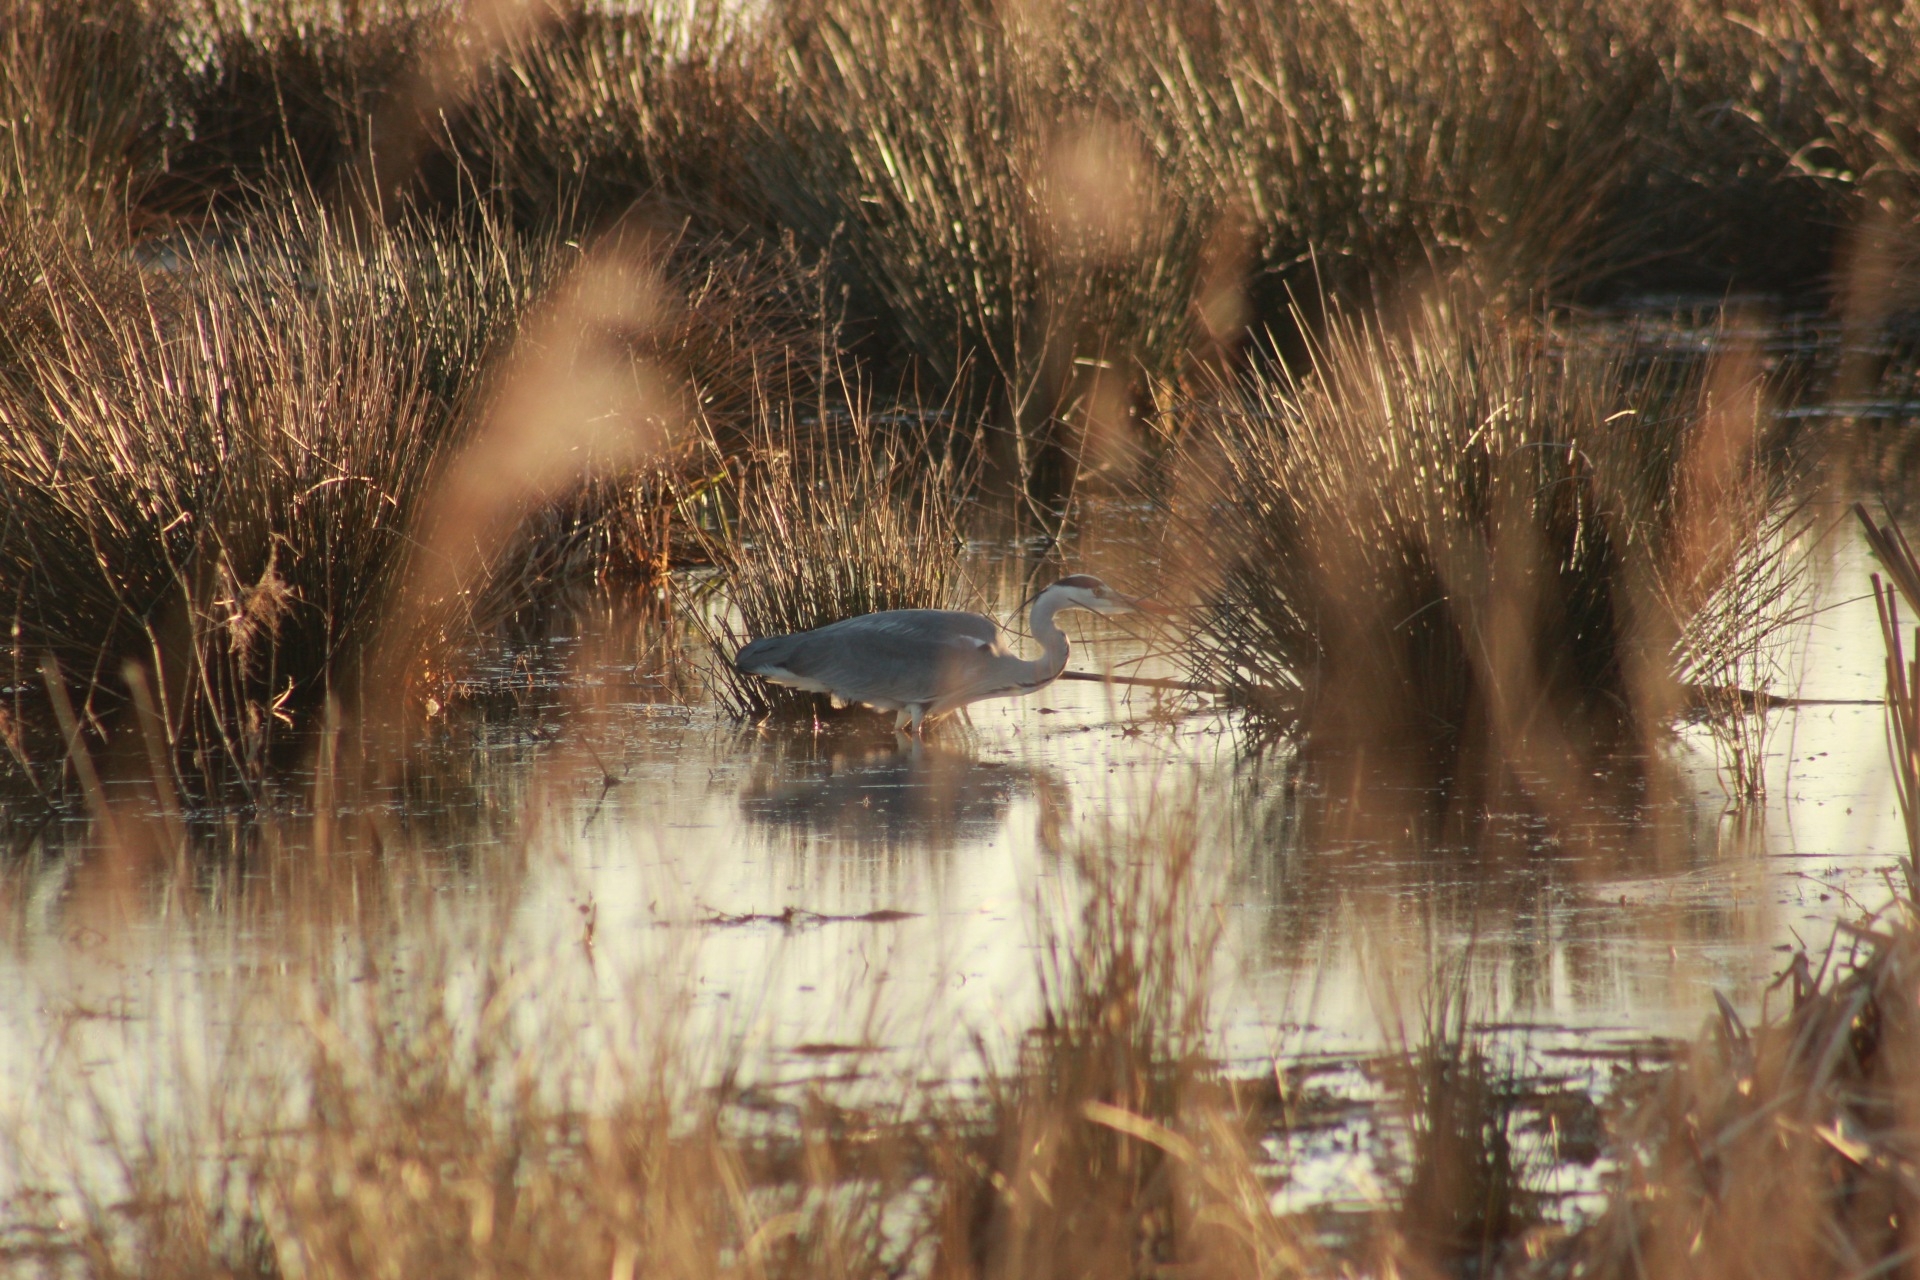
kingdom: Animalia
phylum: Chordata
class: Aves
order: Pelecaniformes
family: Ardeidae
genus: Ardea
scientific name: Ardea cinerea
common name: Grey heron
